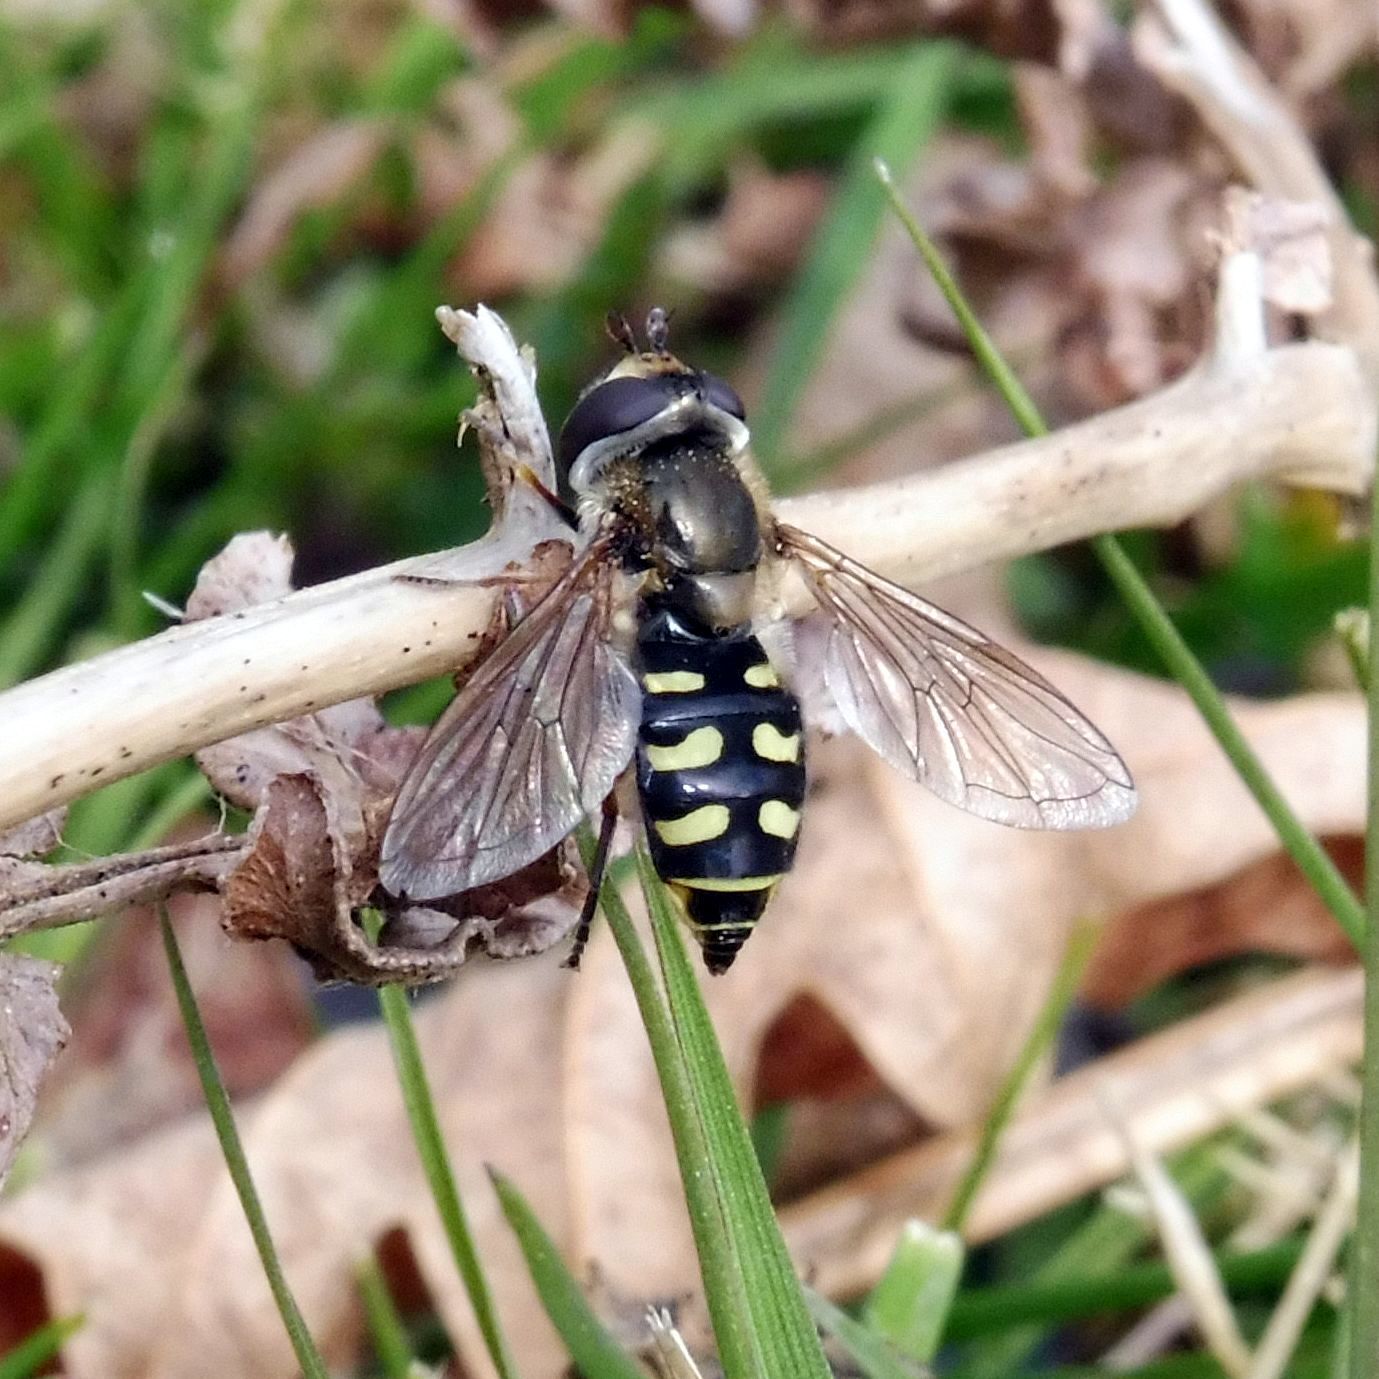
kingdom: Animalia
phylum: Arthropoda
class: Insecta
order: Diptera
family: Syrphidae
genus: Eupeodes
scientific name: Eupeodes luniger
